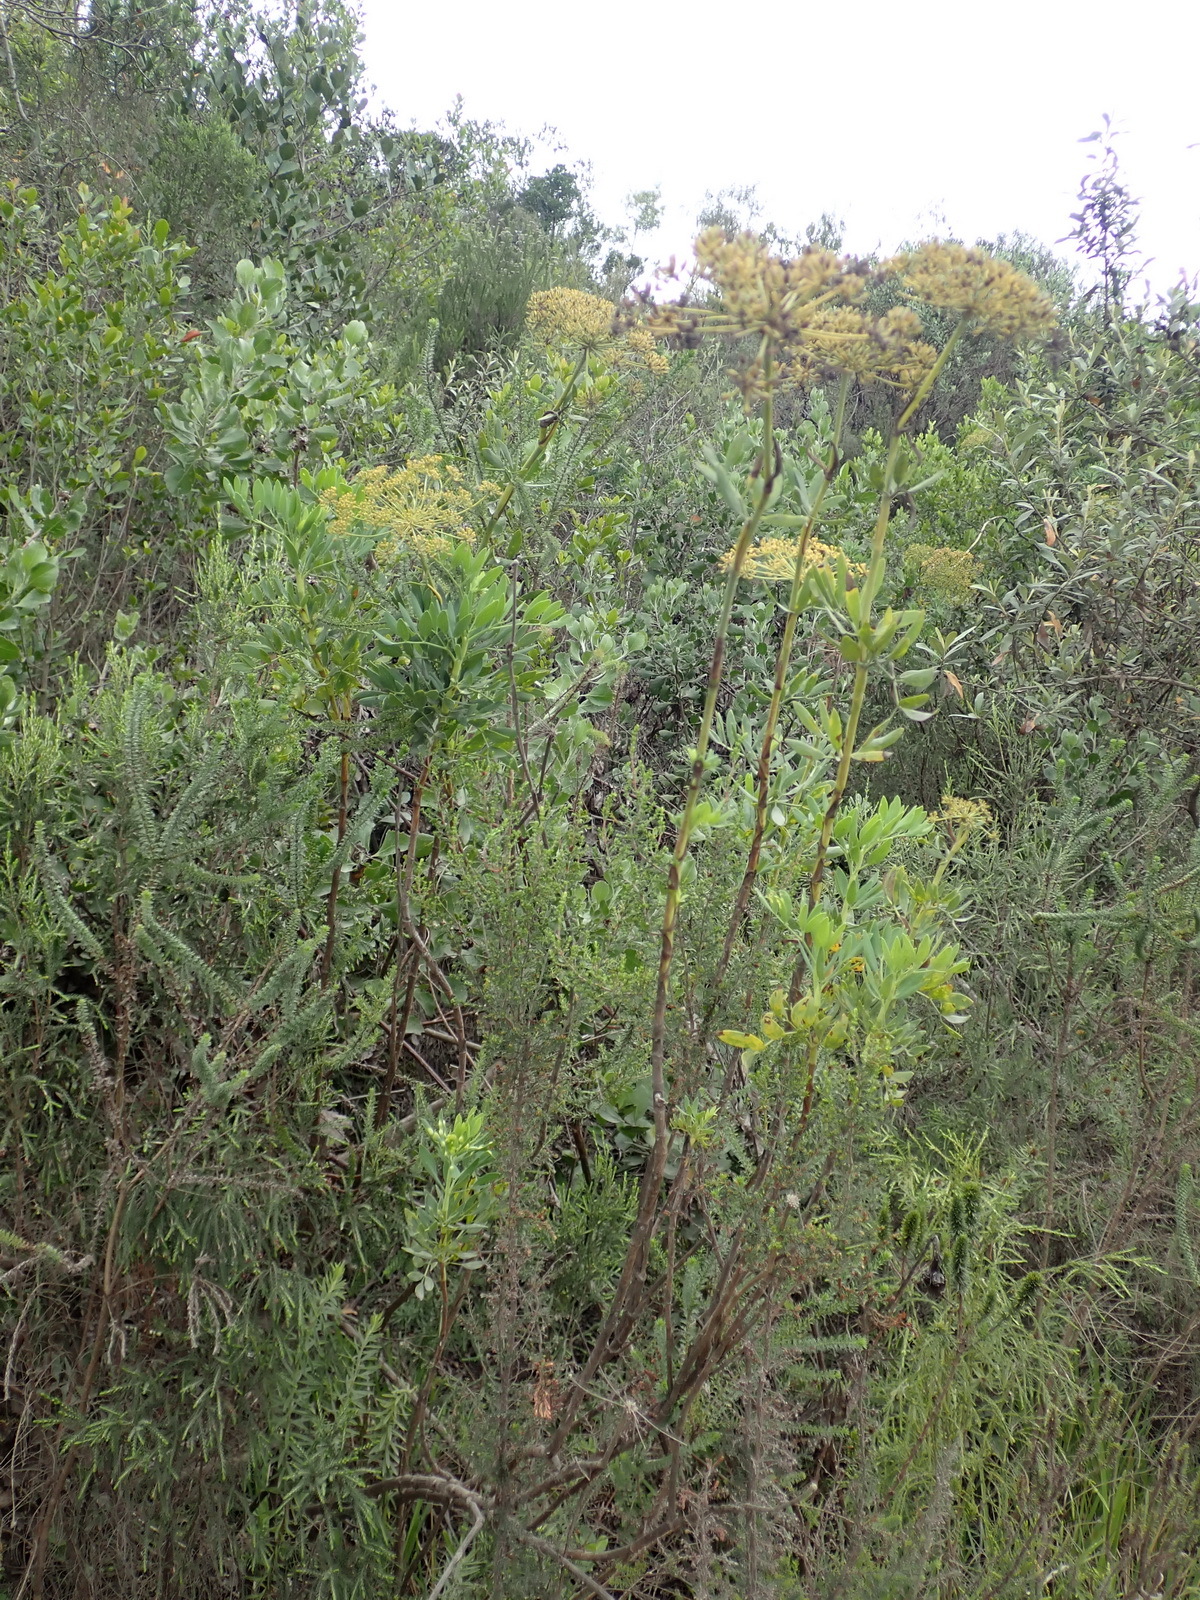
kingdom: Plantae
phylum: Tracheophyta
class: Magnoliopsida
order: Apiales
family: Apiaceae
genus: Notobubon
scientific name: Notobubon laevigatum
